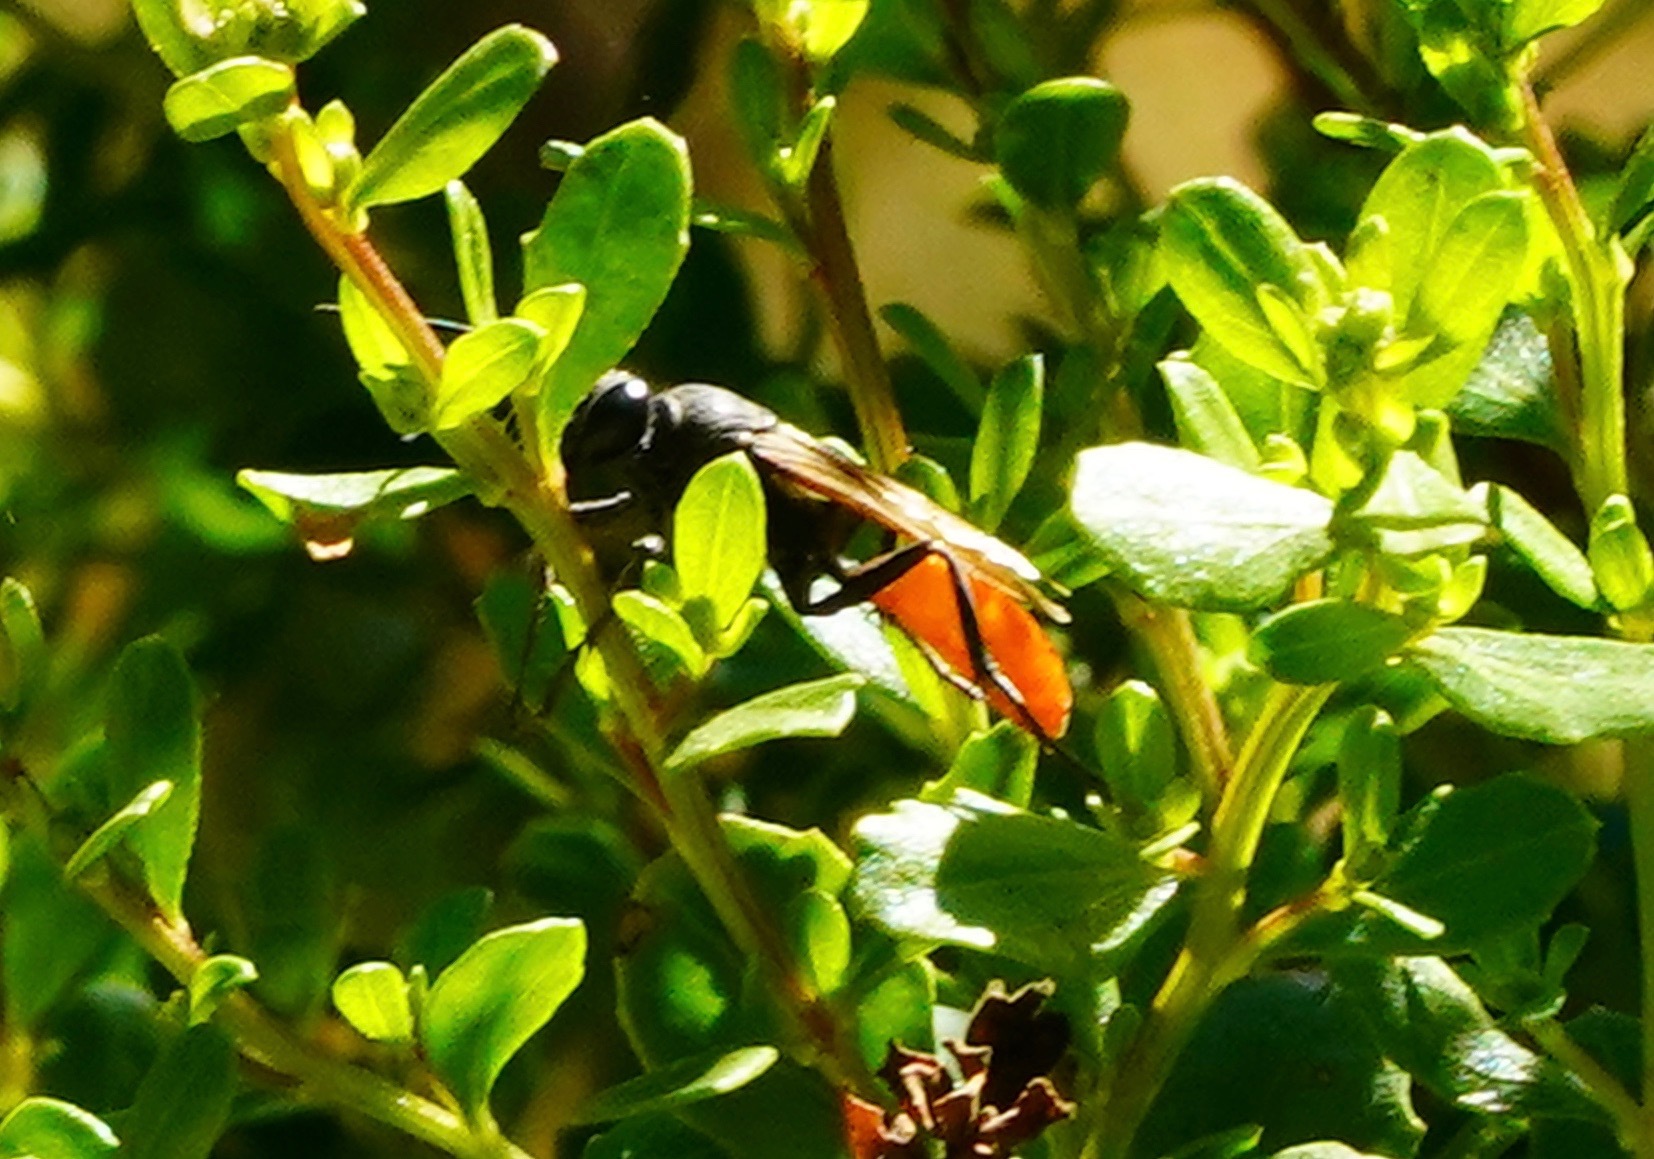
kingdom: Animalia
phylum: Arthropoda
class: Insecta
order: Hymenoptera
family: Sphecidae
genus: Sphex
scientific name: Sphex lucae
